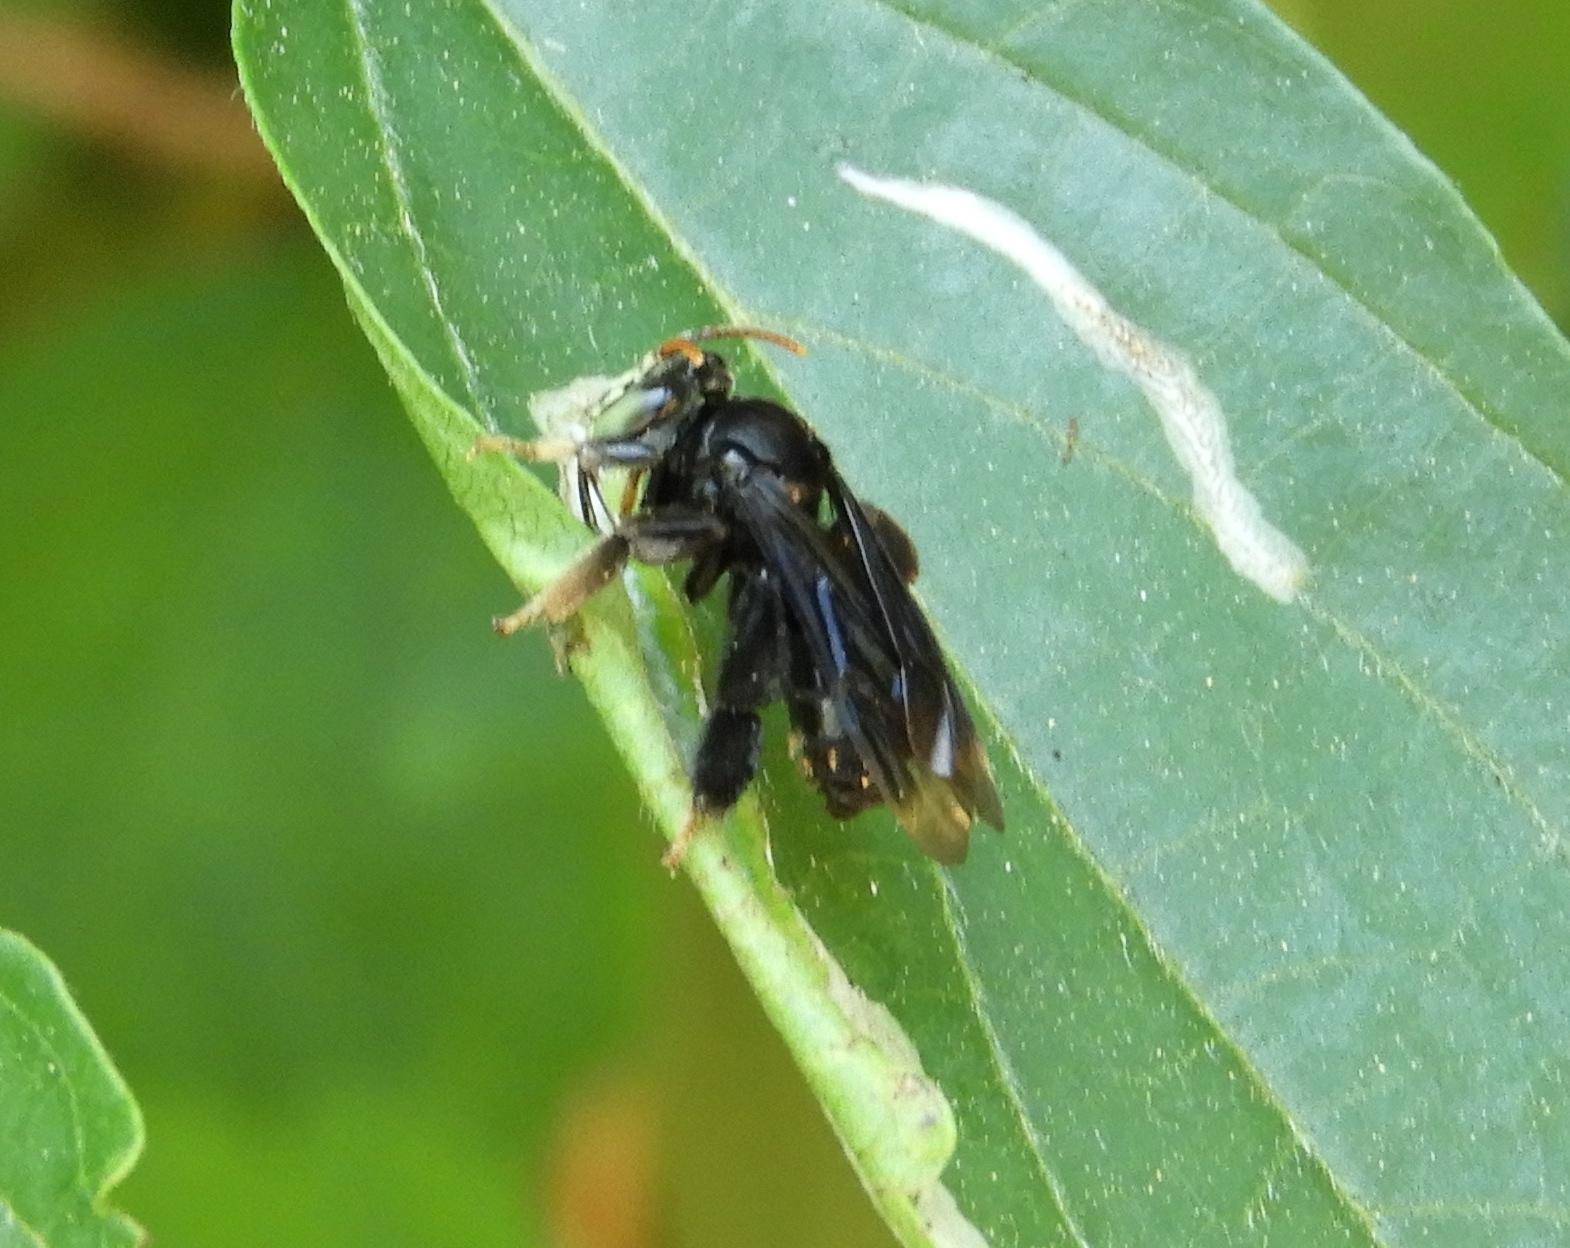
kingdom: Animalia
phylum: Arthropoda
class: Insecta
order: Hymenoptera
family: Apidae
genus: Paratetrapedia
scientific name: Paratetrapedia moesta
